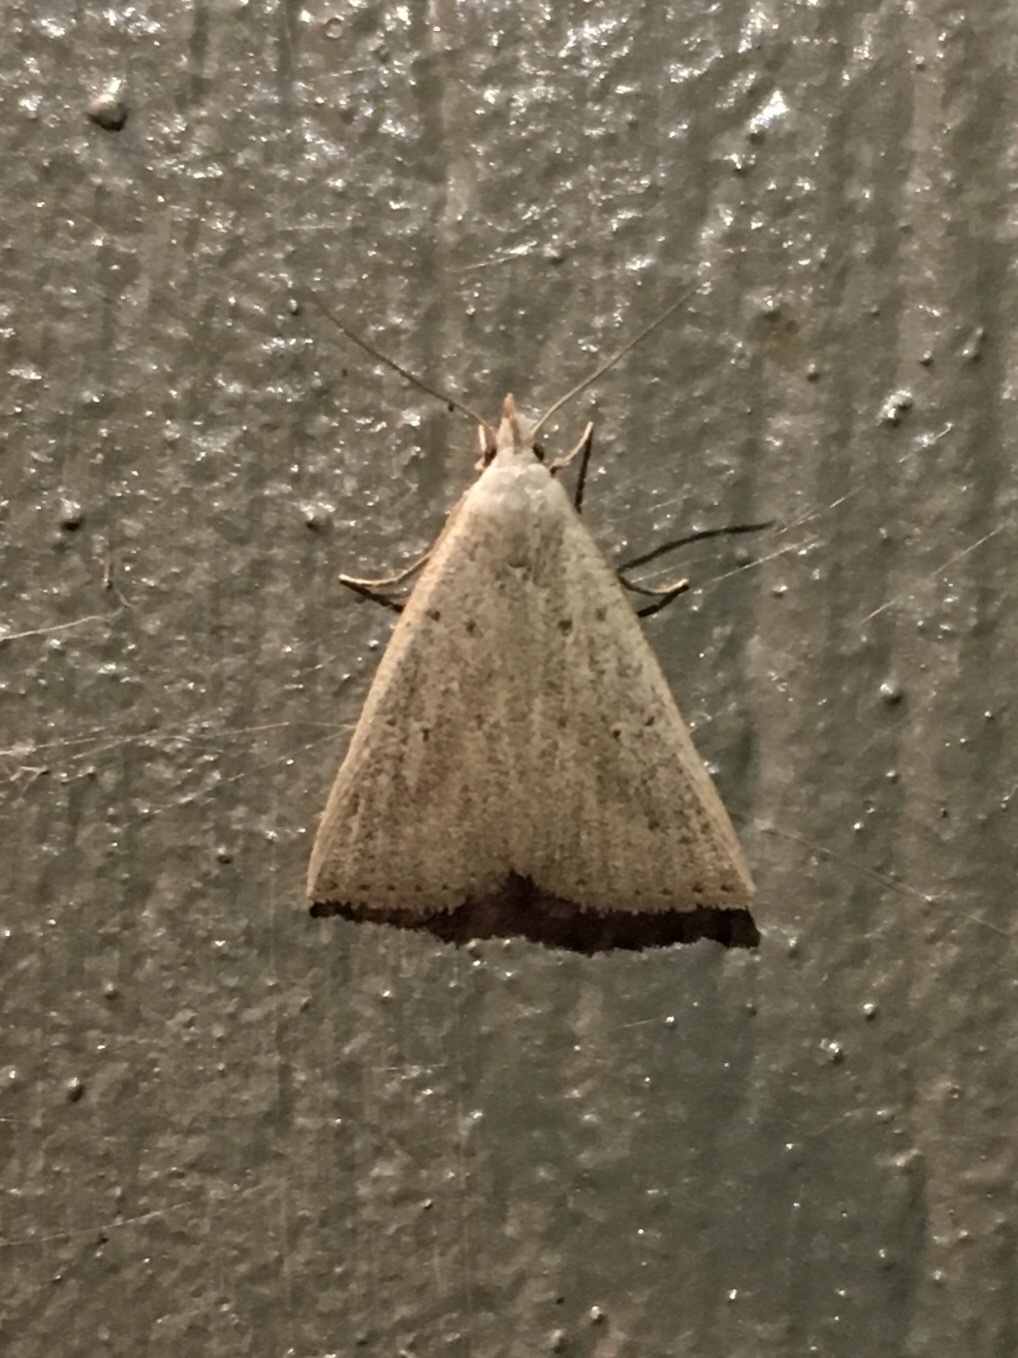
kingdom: Animalia
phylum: Arthropoda
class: Insecta
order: Lepidoptera
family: Erebidae
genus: Macrochilo
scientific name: Macrochilo louisiana
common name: Louisiana macrochilo
